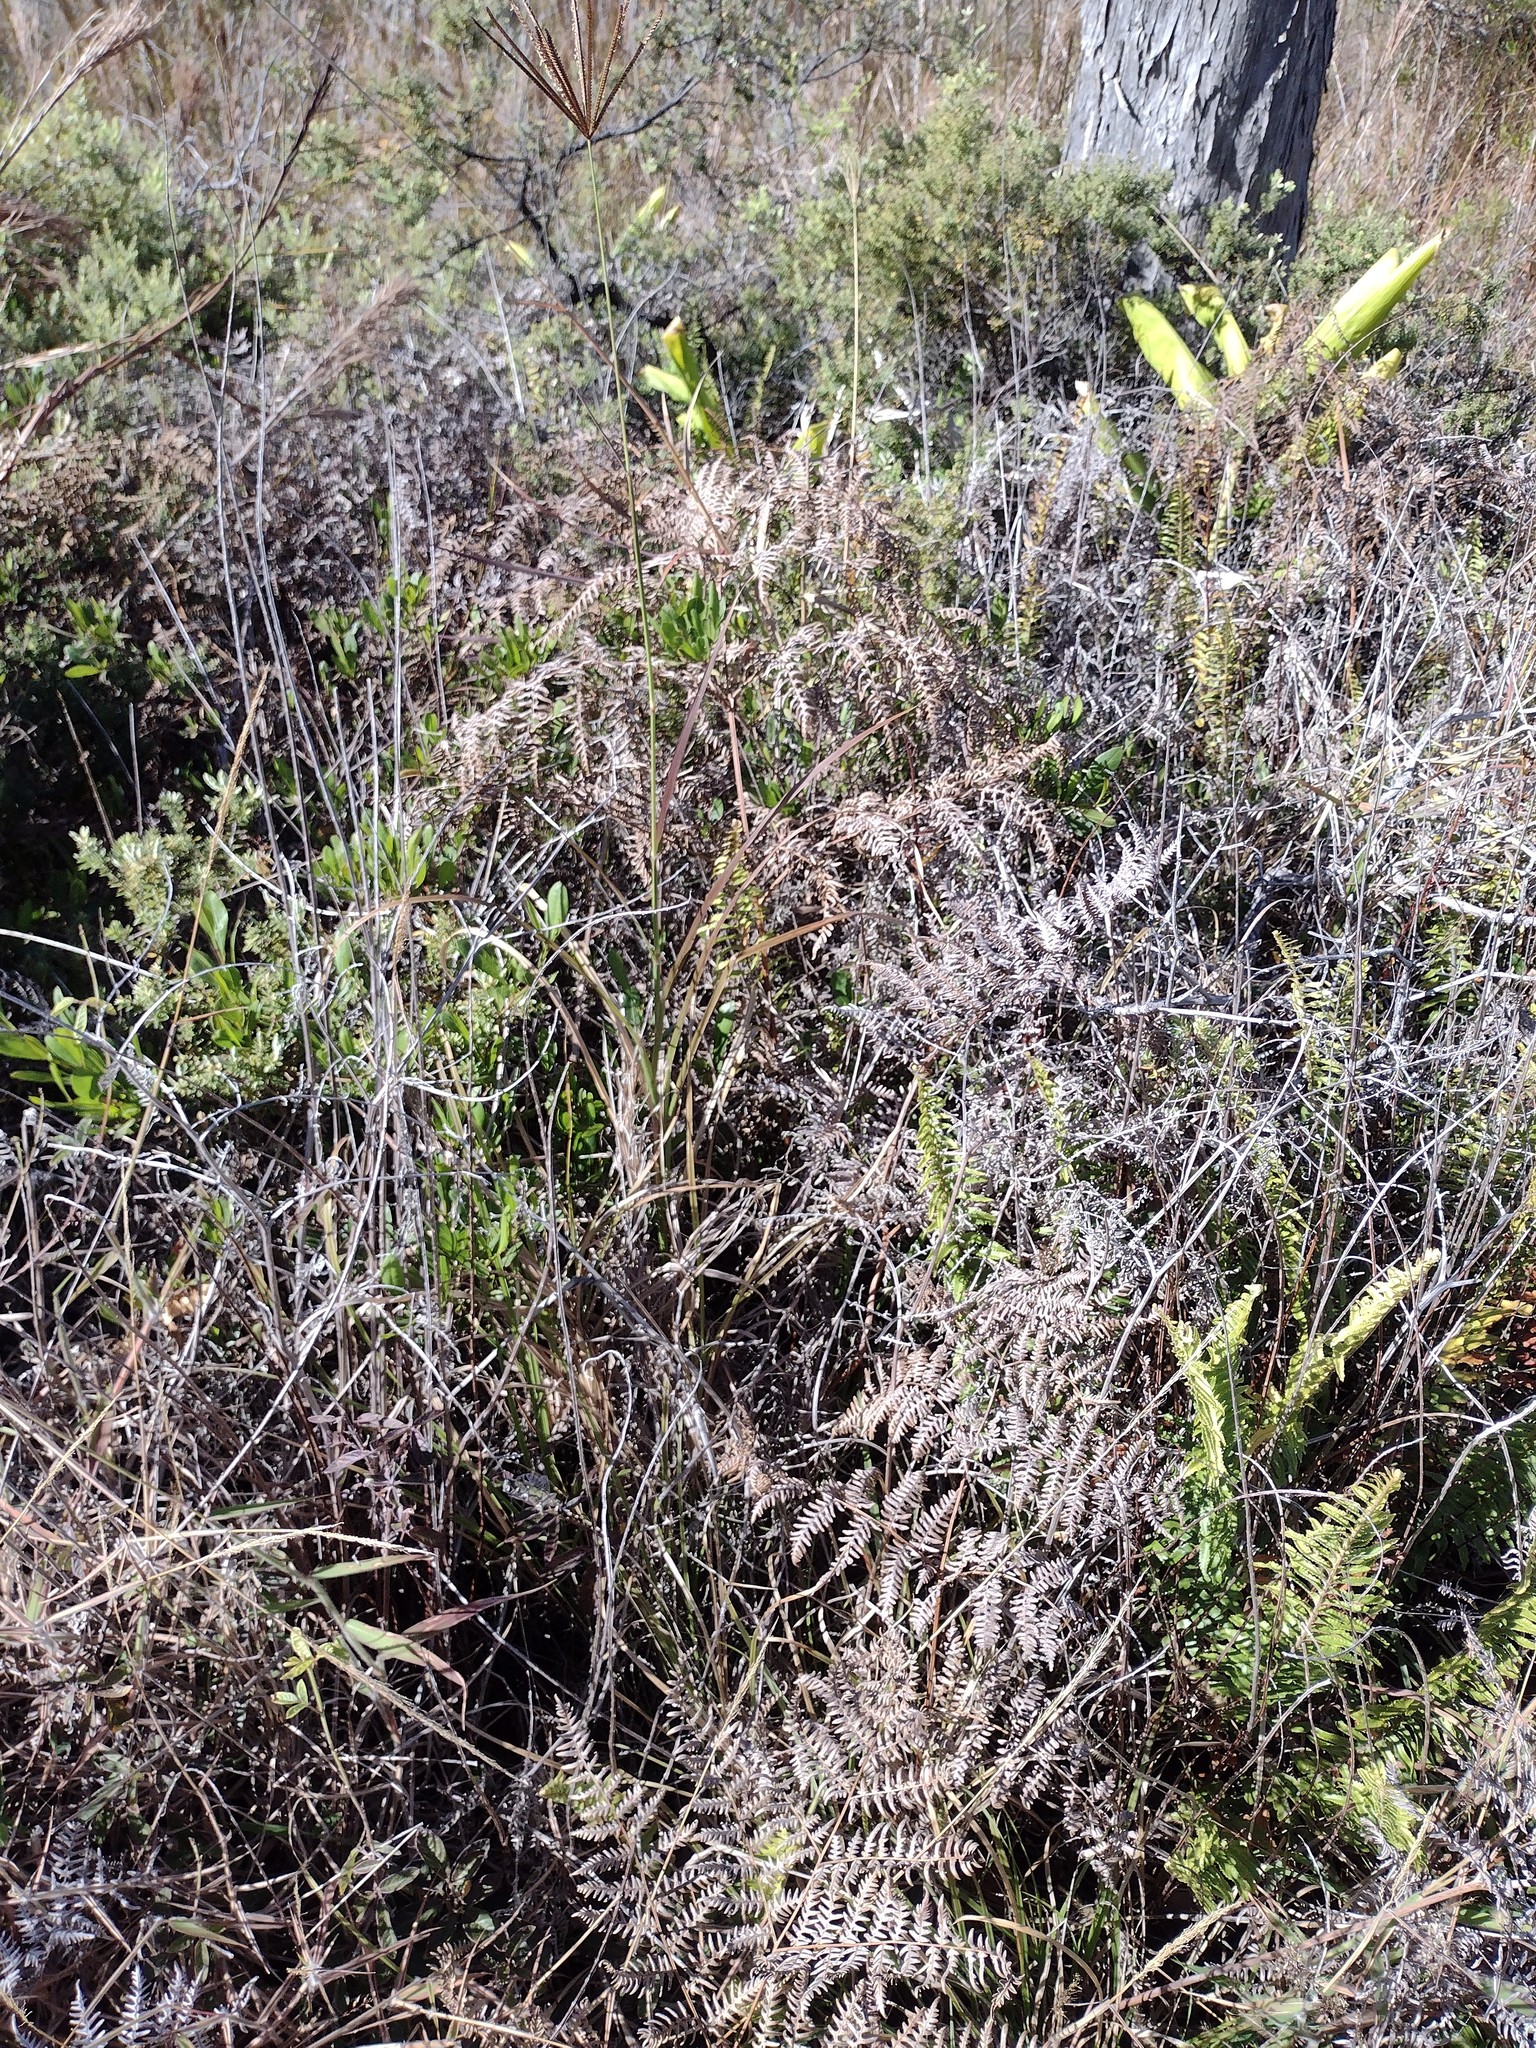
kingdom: Plantae
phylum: Tracheophyta
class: Polypodiopsida
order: Polypodiales
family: Dennstaedtiaceae
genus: Pteridium
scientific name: Pteridium aquilinum
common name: Bracken
